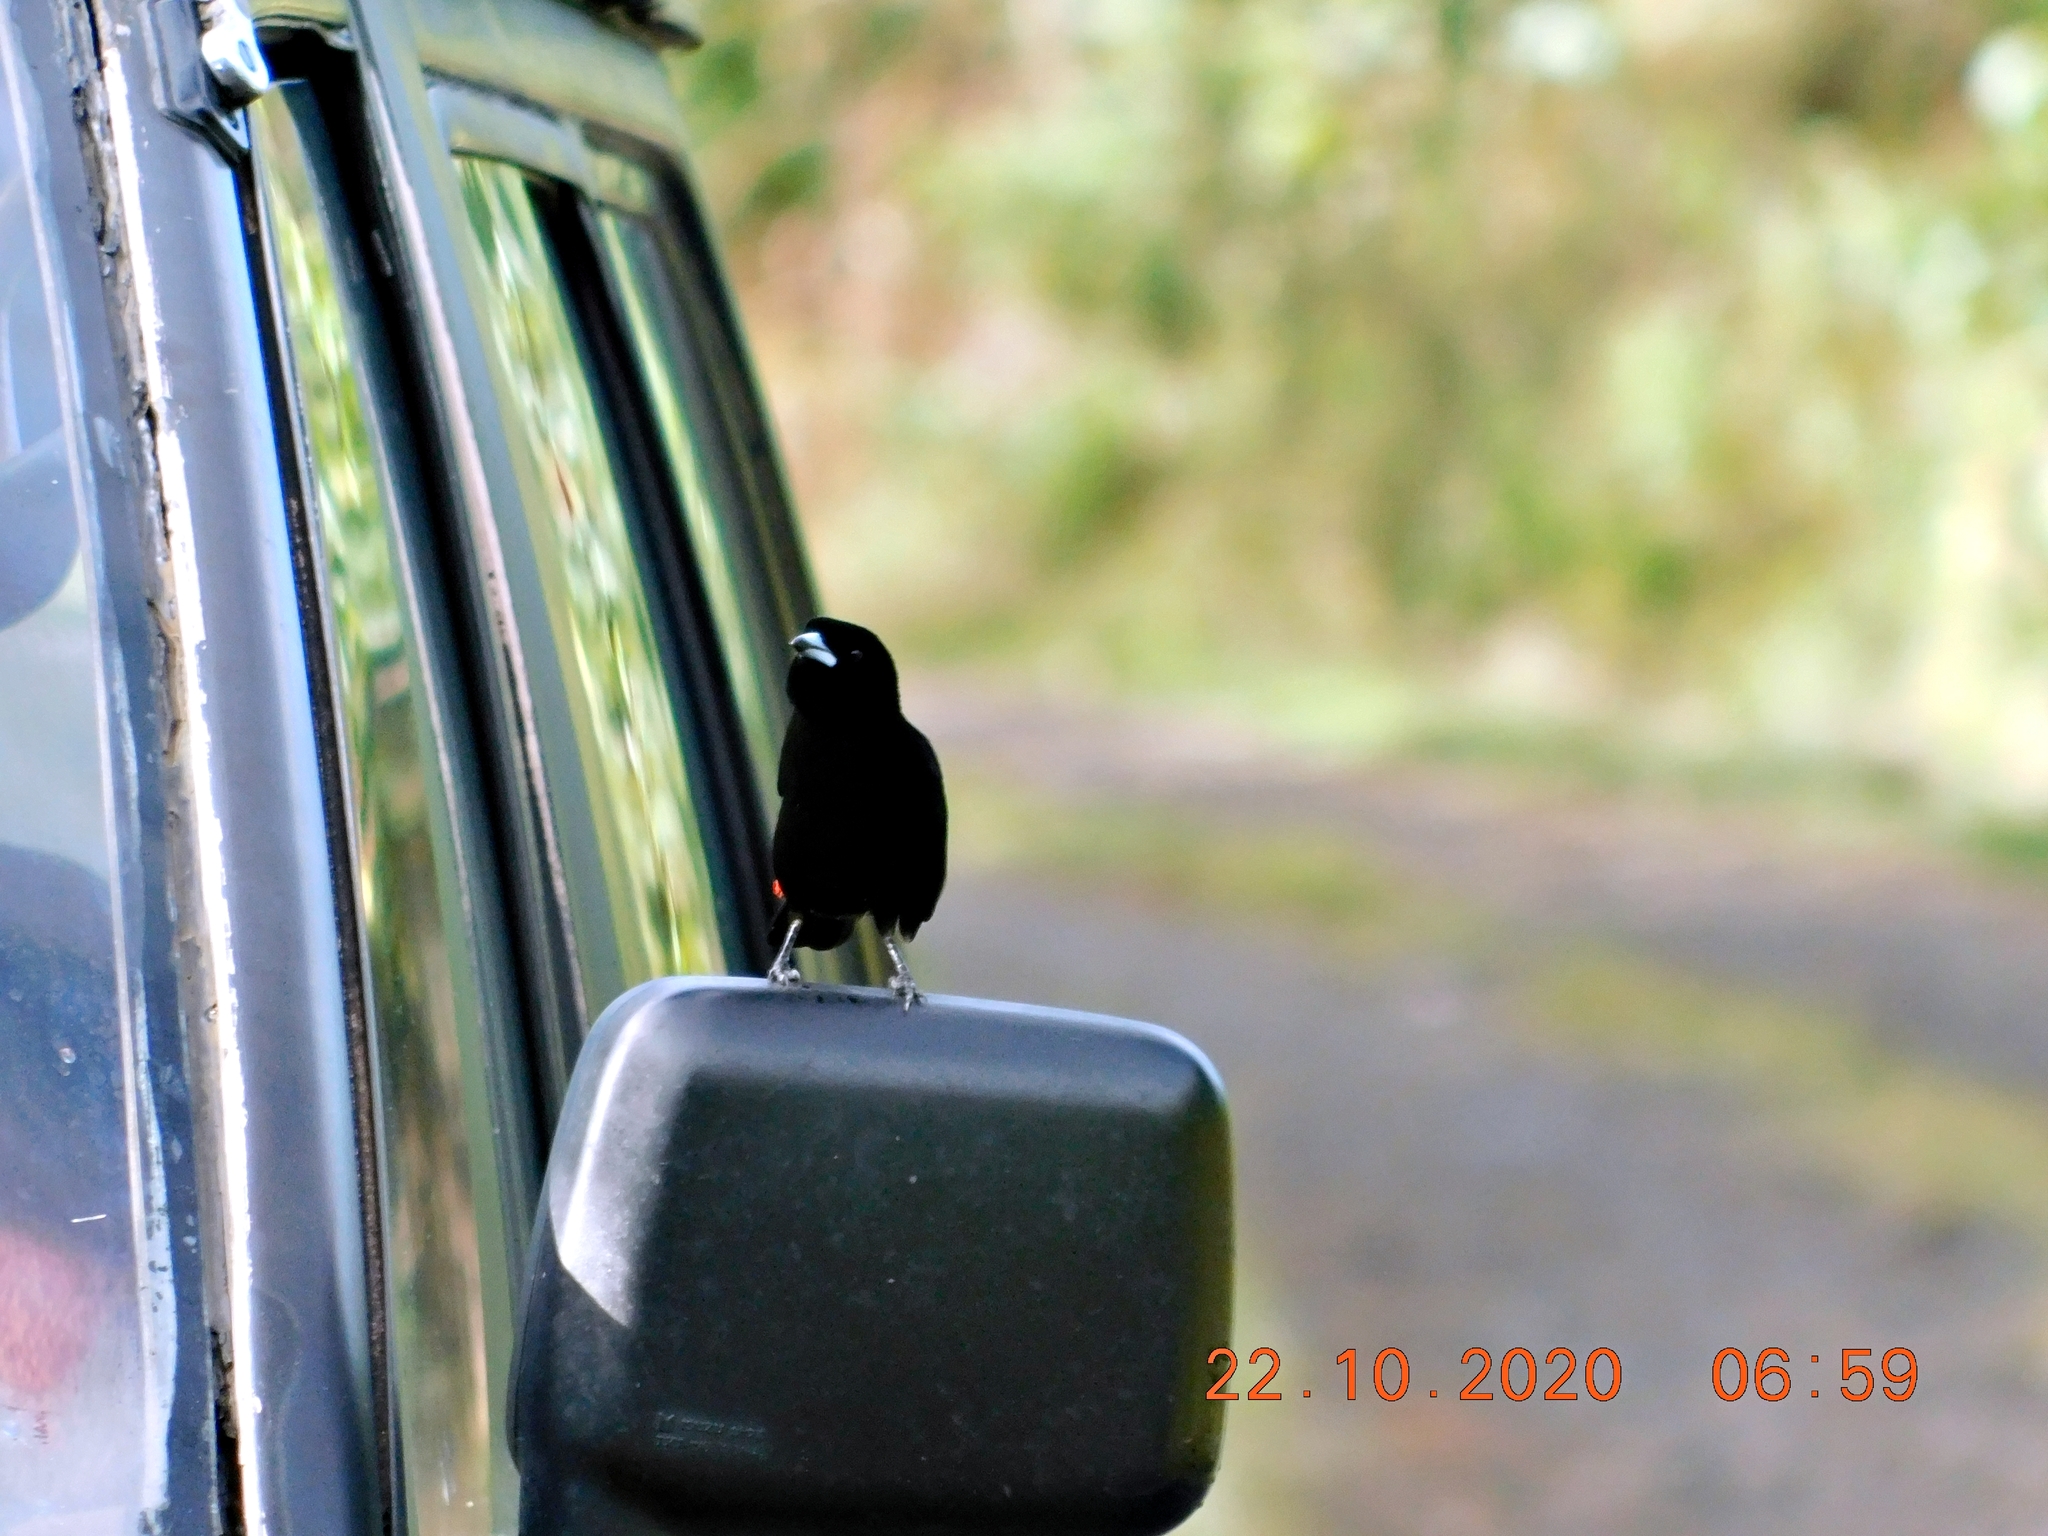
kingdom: Animalia
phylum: Chordata
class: Aves
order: Passeriformes
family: Thraupidae
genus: Ramphocelus
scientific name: Ramphocelus passerinii
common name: Passerini's tanager
